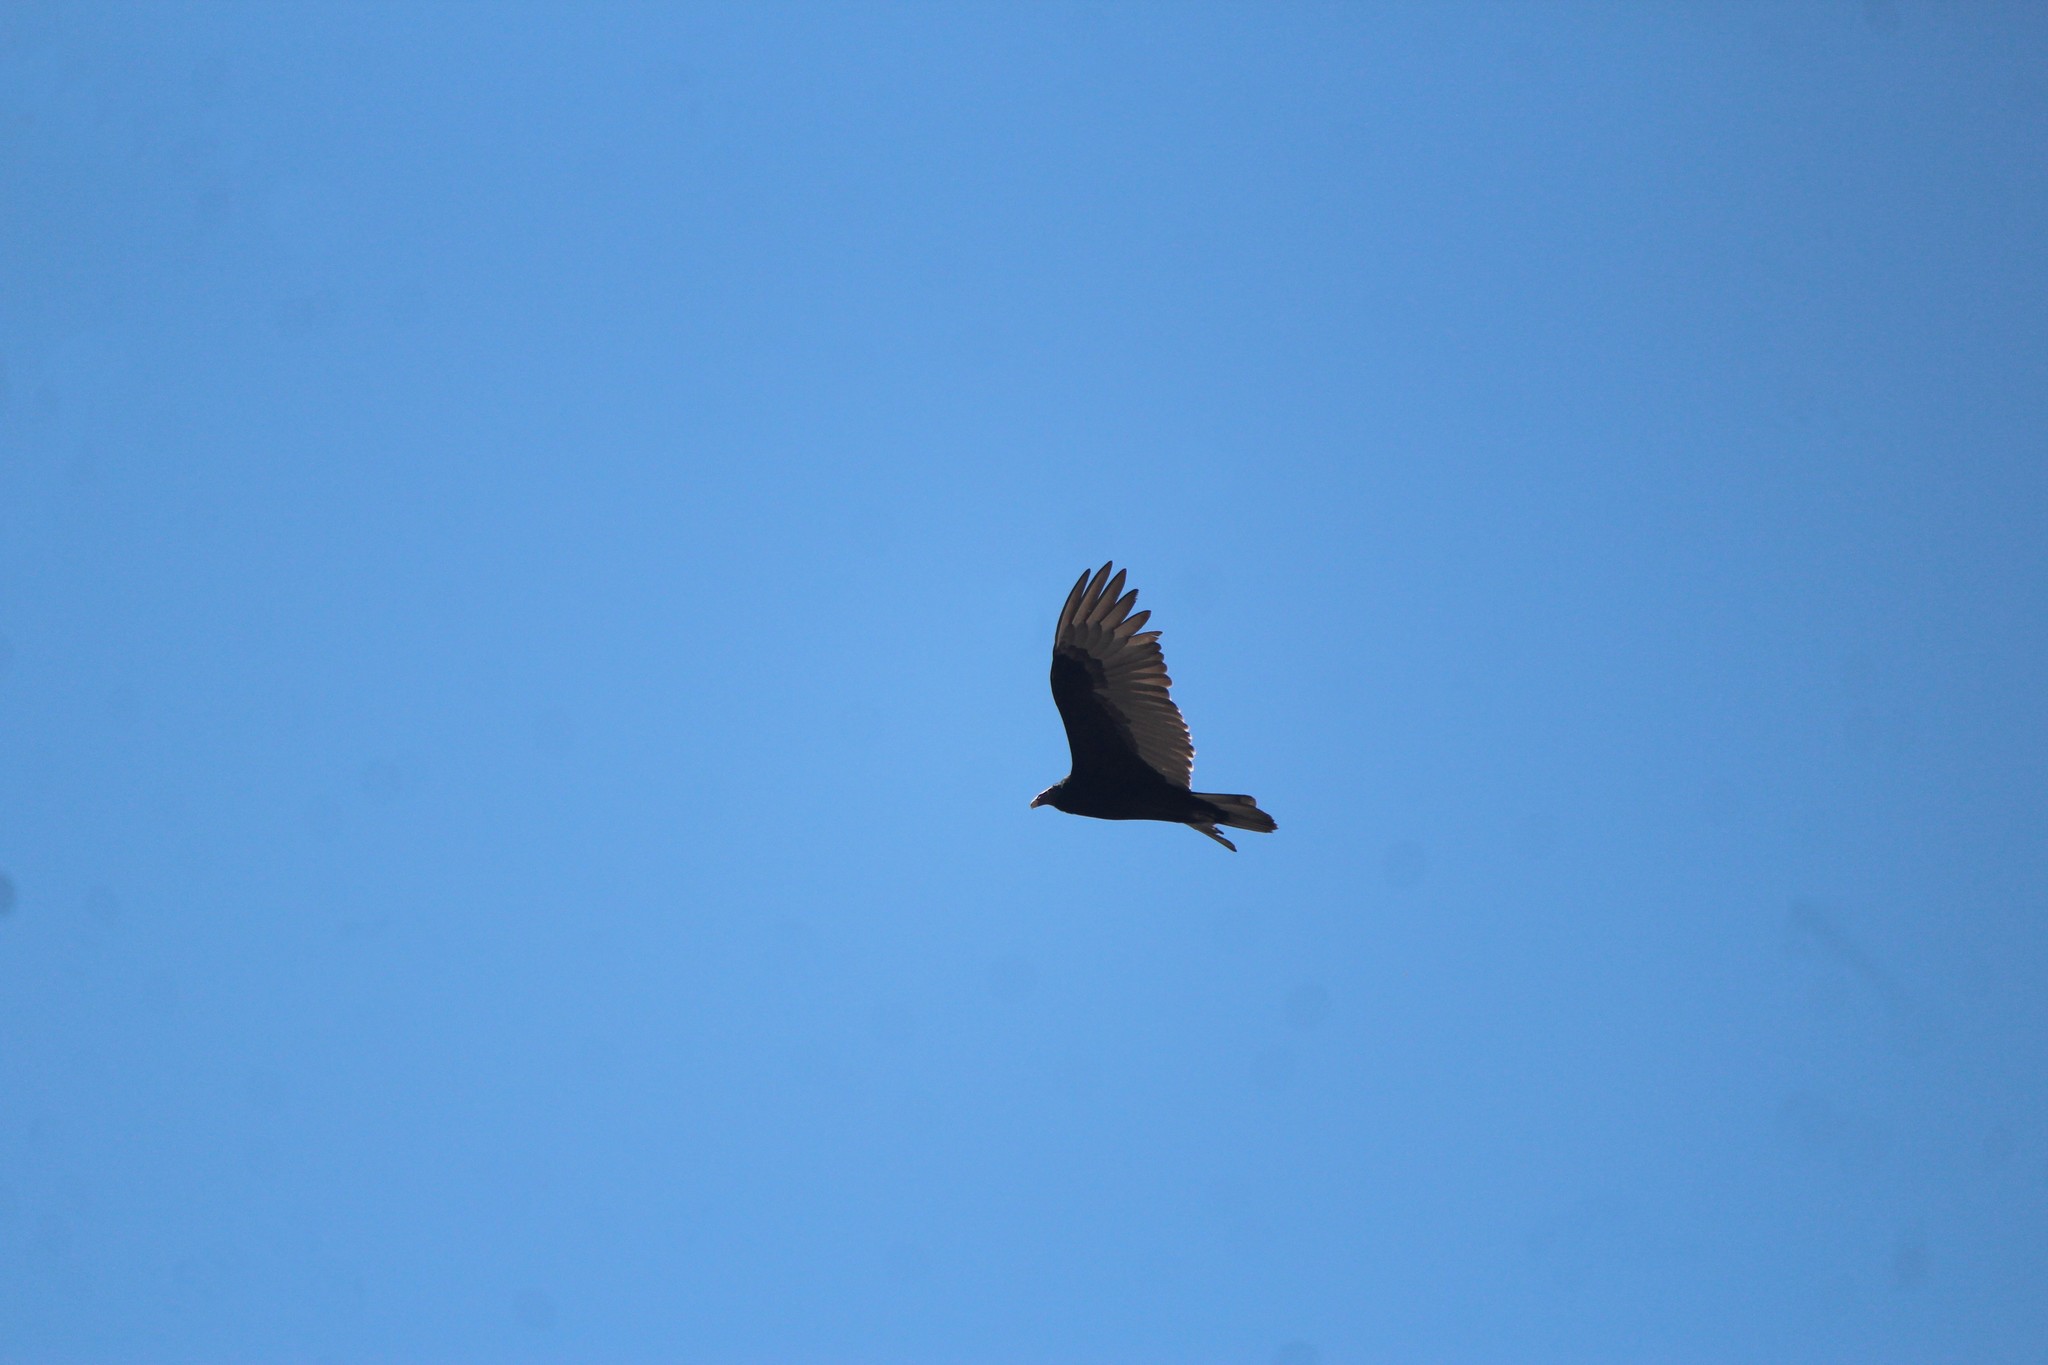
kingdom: Animalia
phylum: Chordata
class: Aves
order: Accipitriformes
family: Cathartidae
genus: Cathartes
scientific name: Cathartes aura
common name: Turkey vulture
